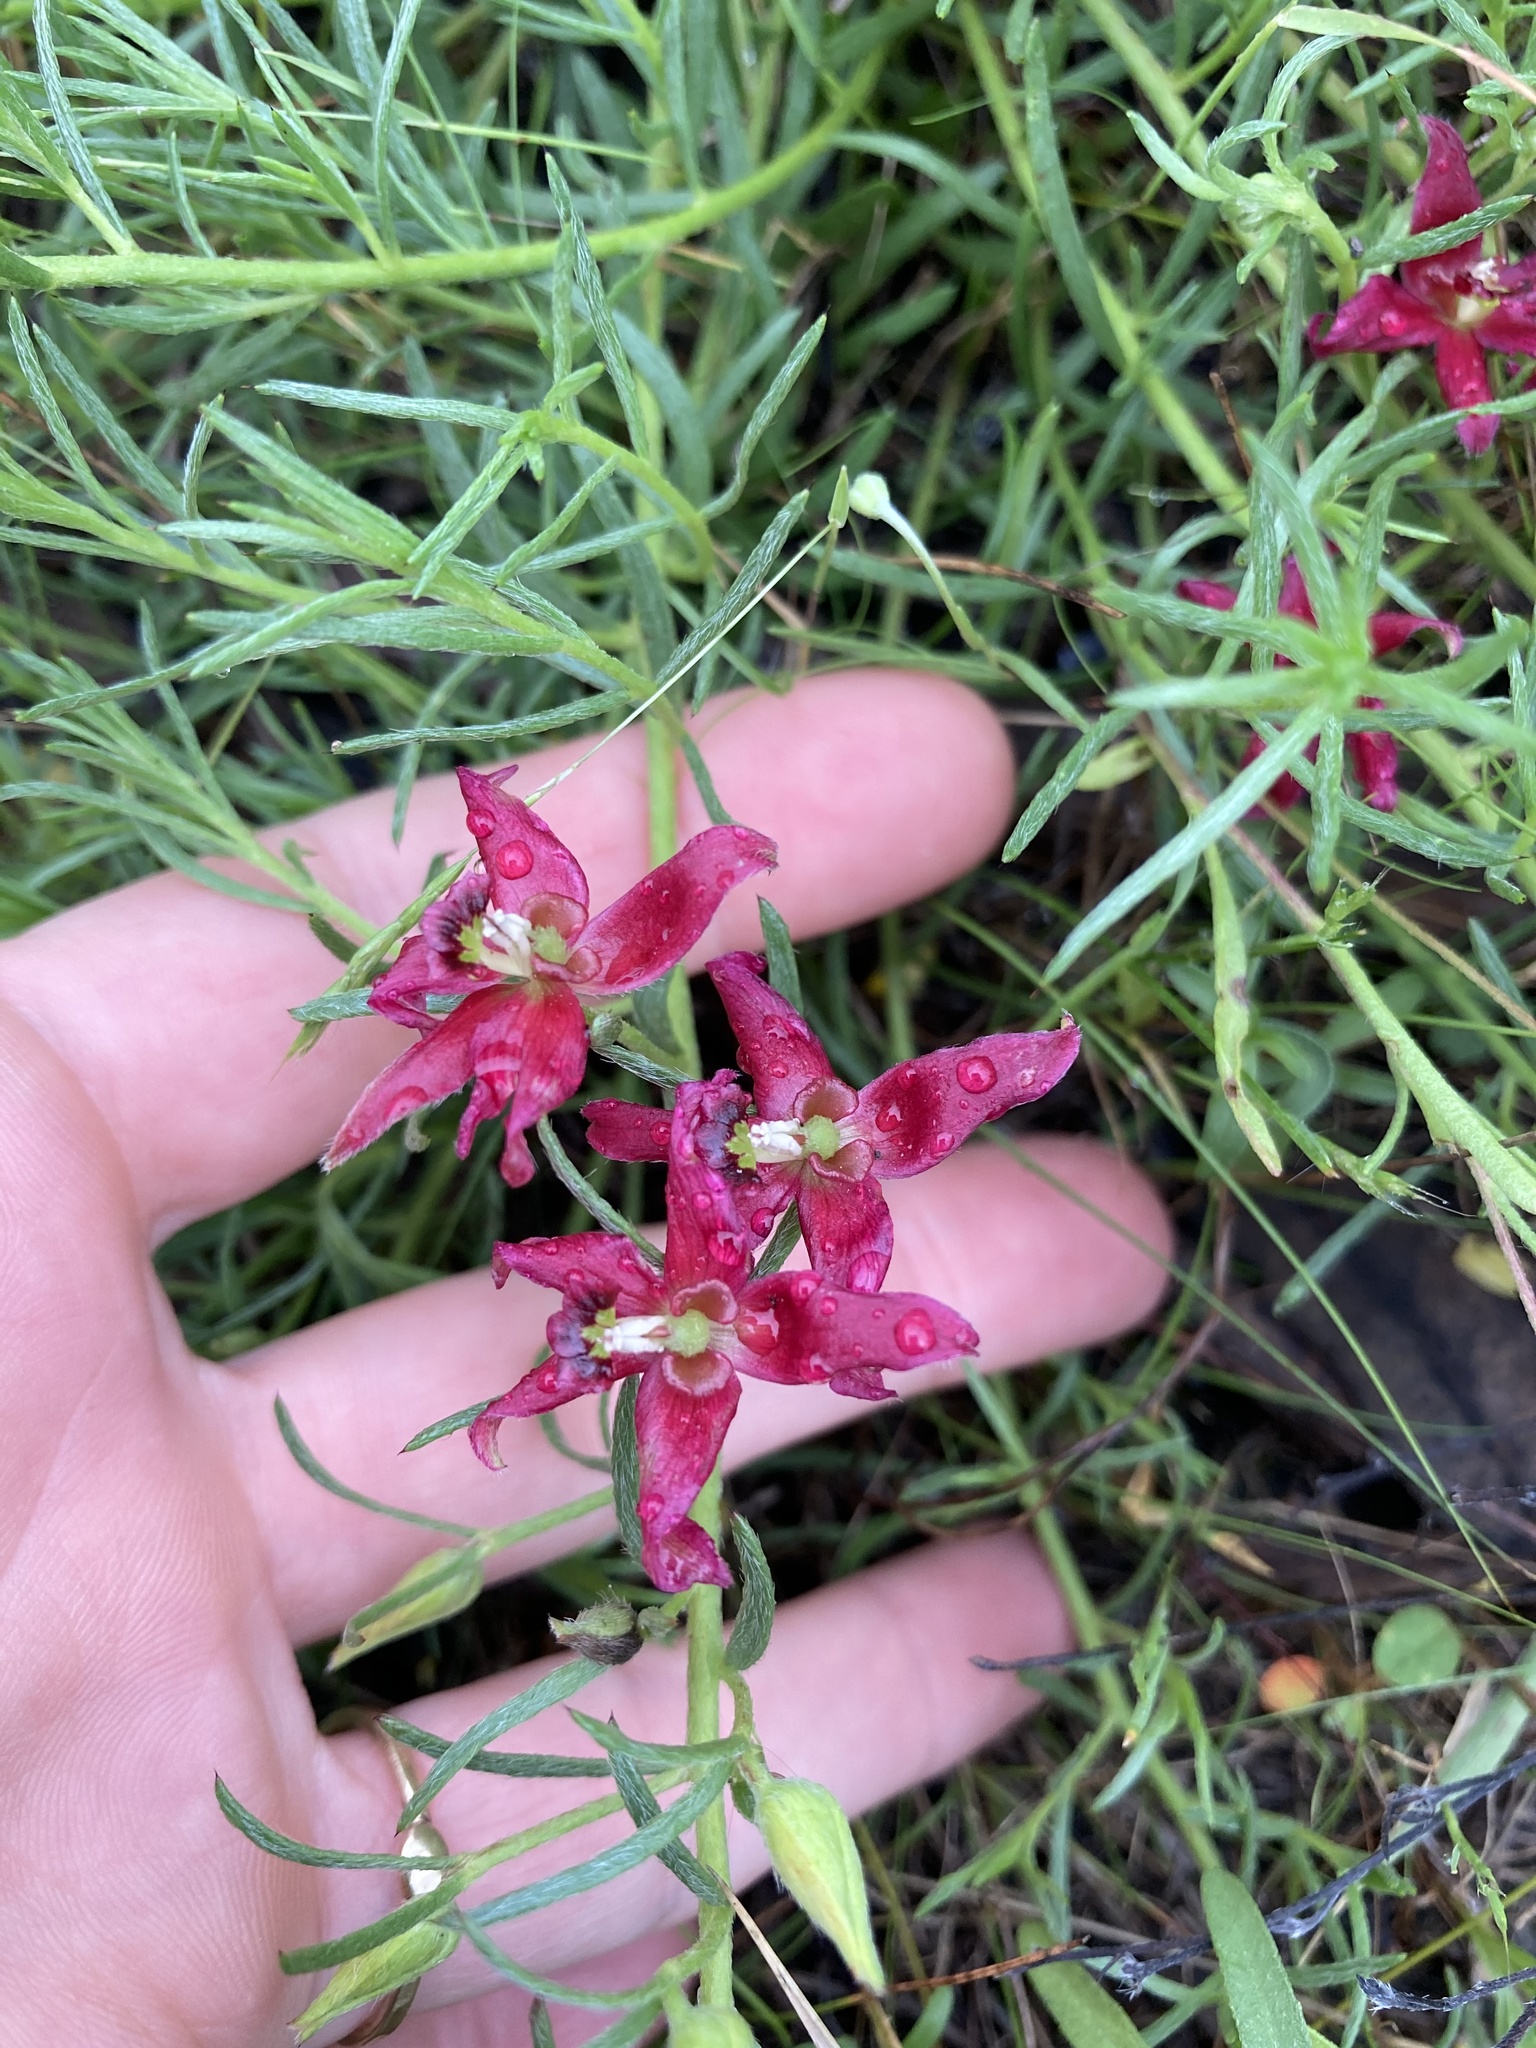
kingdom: Plantae
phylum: Tracheophyta
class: Magnoliopsida
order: Zygophyllales
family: Krameriaceae
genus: Krameria
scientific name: Krameria lanceolata
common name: Ratany
